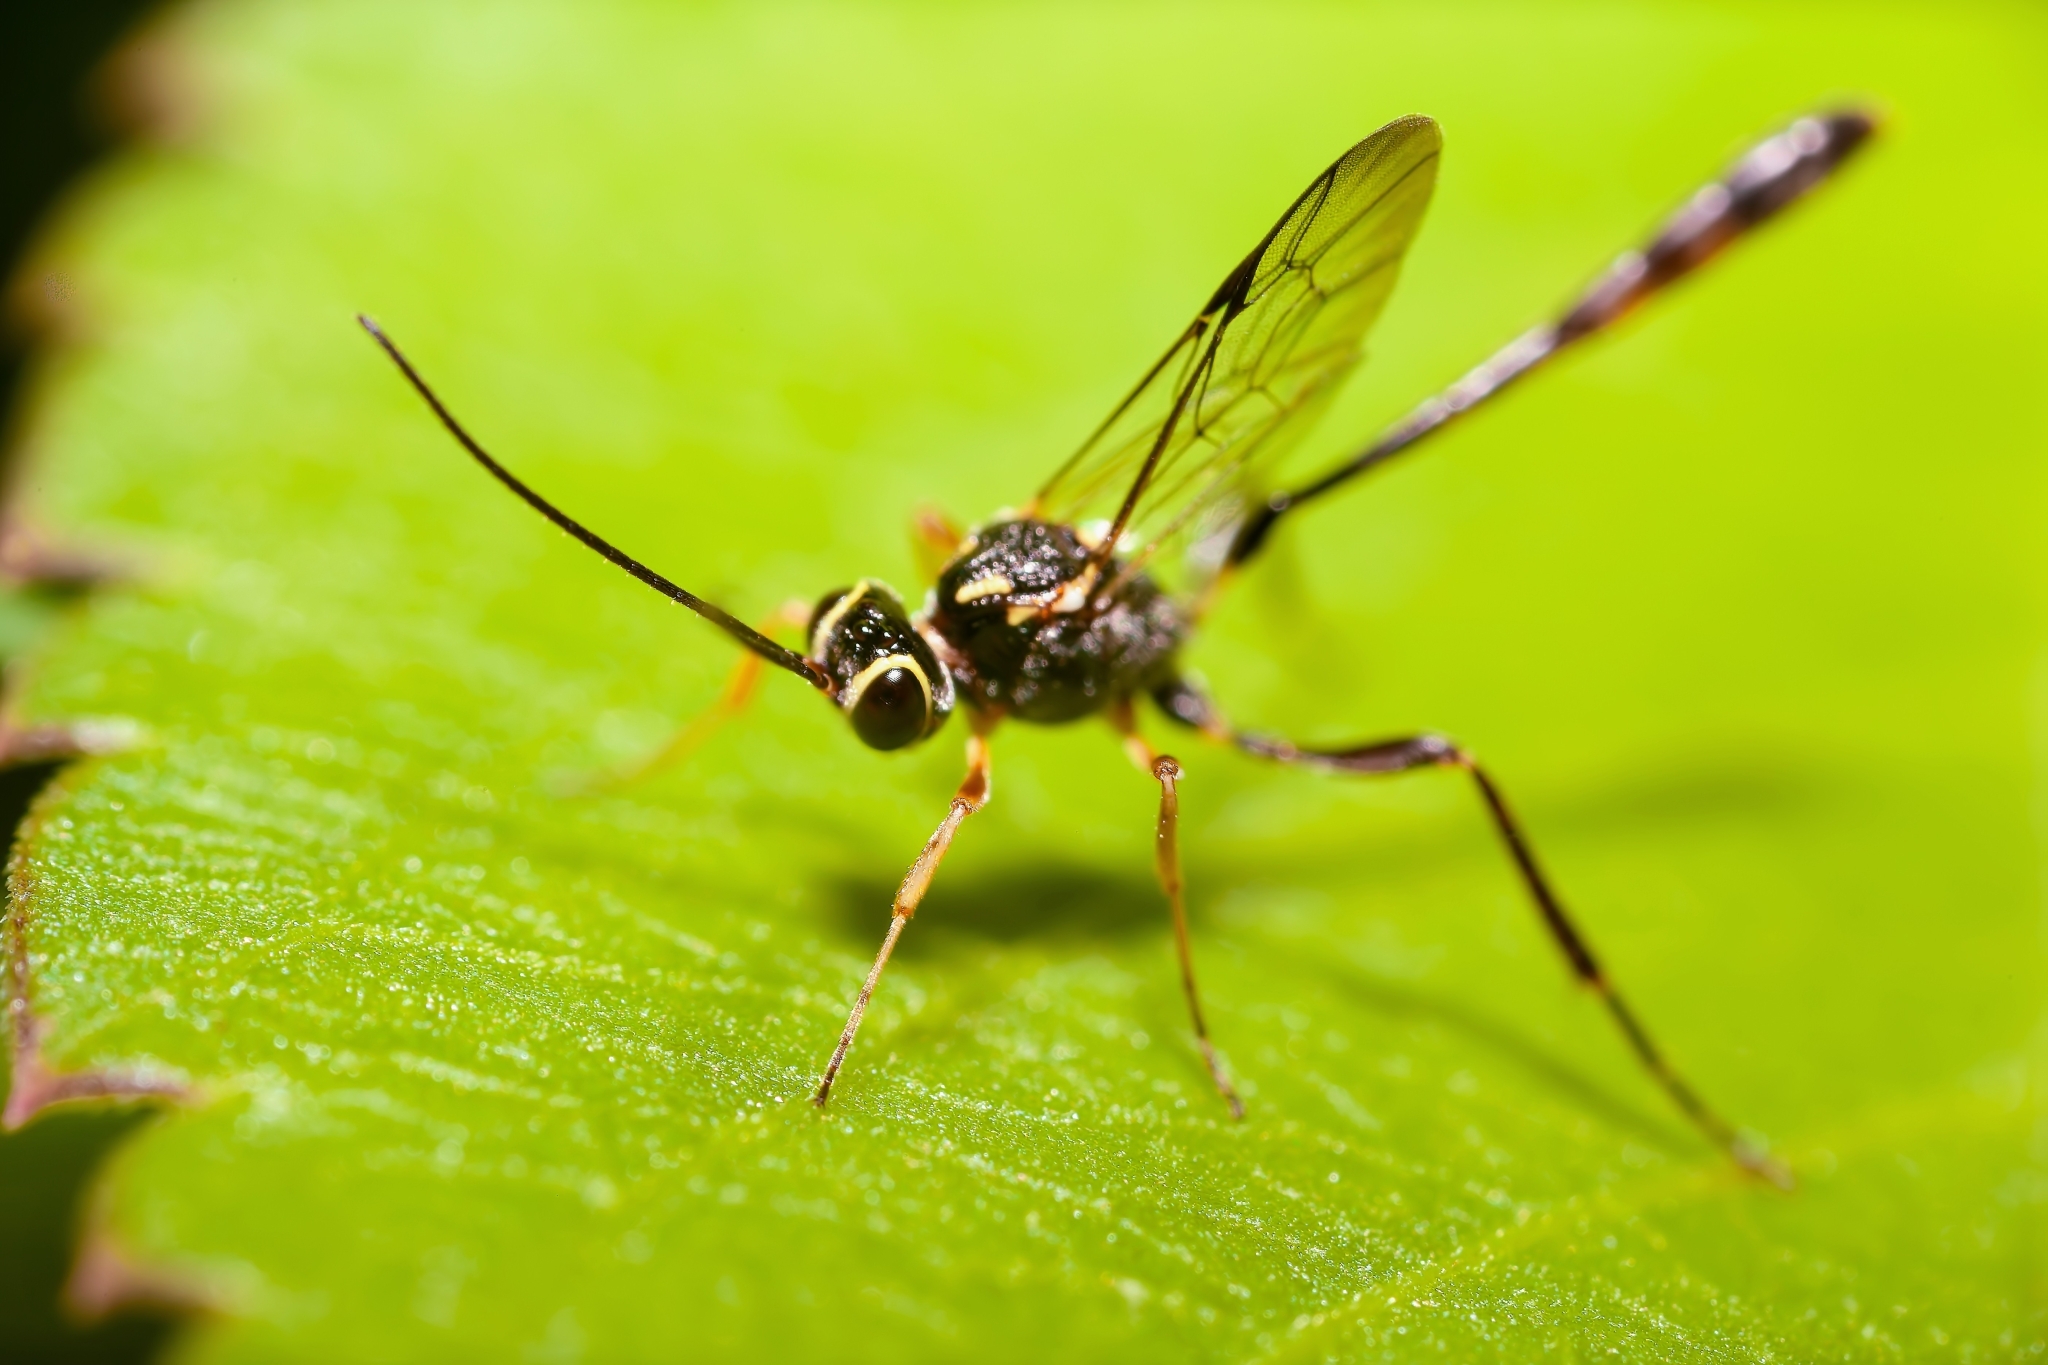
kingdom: Animalia
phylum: Arthropoda
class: Insecta
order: Hymenoptera
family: Ichneumonidae
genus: Anomalon
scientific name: Anomalon
